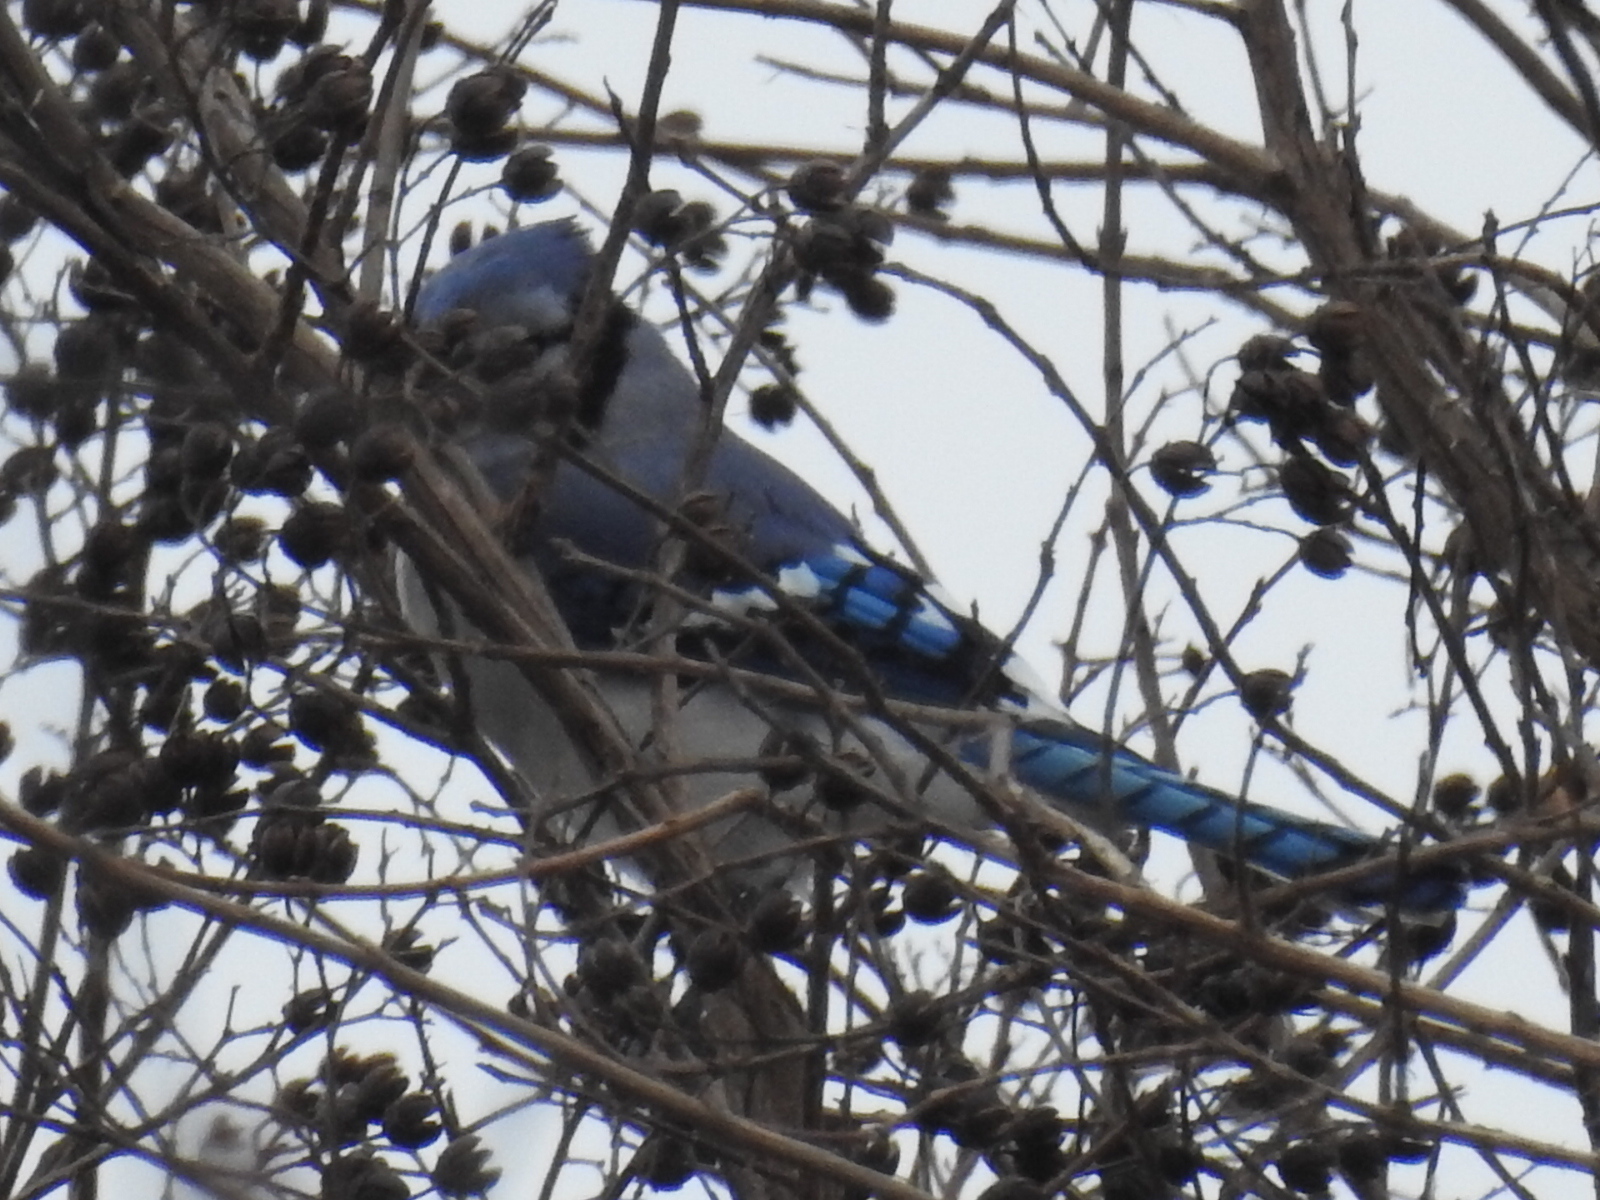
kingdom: Animalia
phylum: Chordata
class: Aves
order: Passeriformes
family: Corvidae
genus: Cyanocitta
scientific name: Cyanocitta cristata
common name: Blue jay
